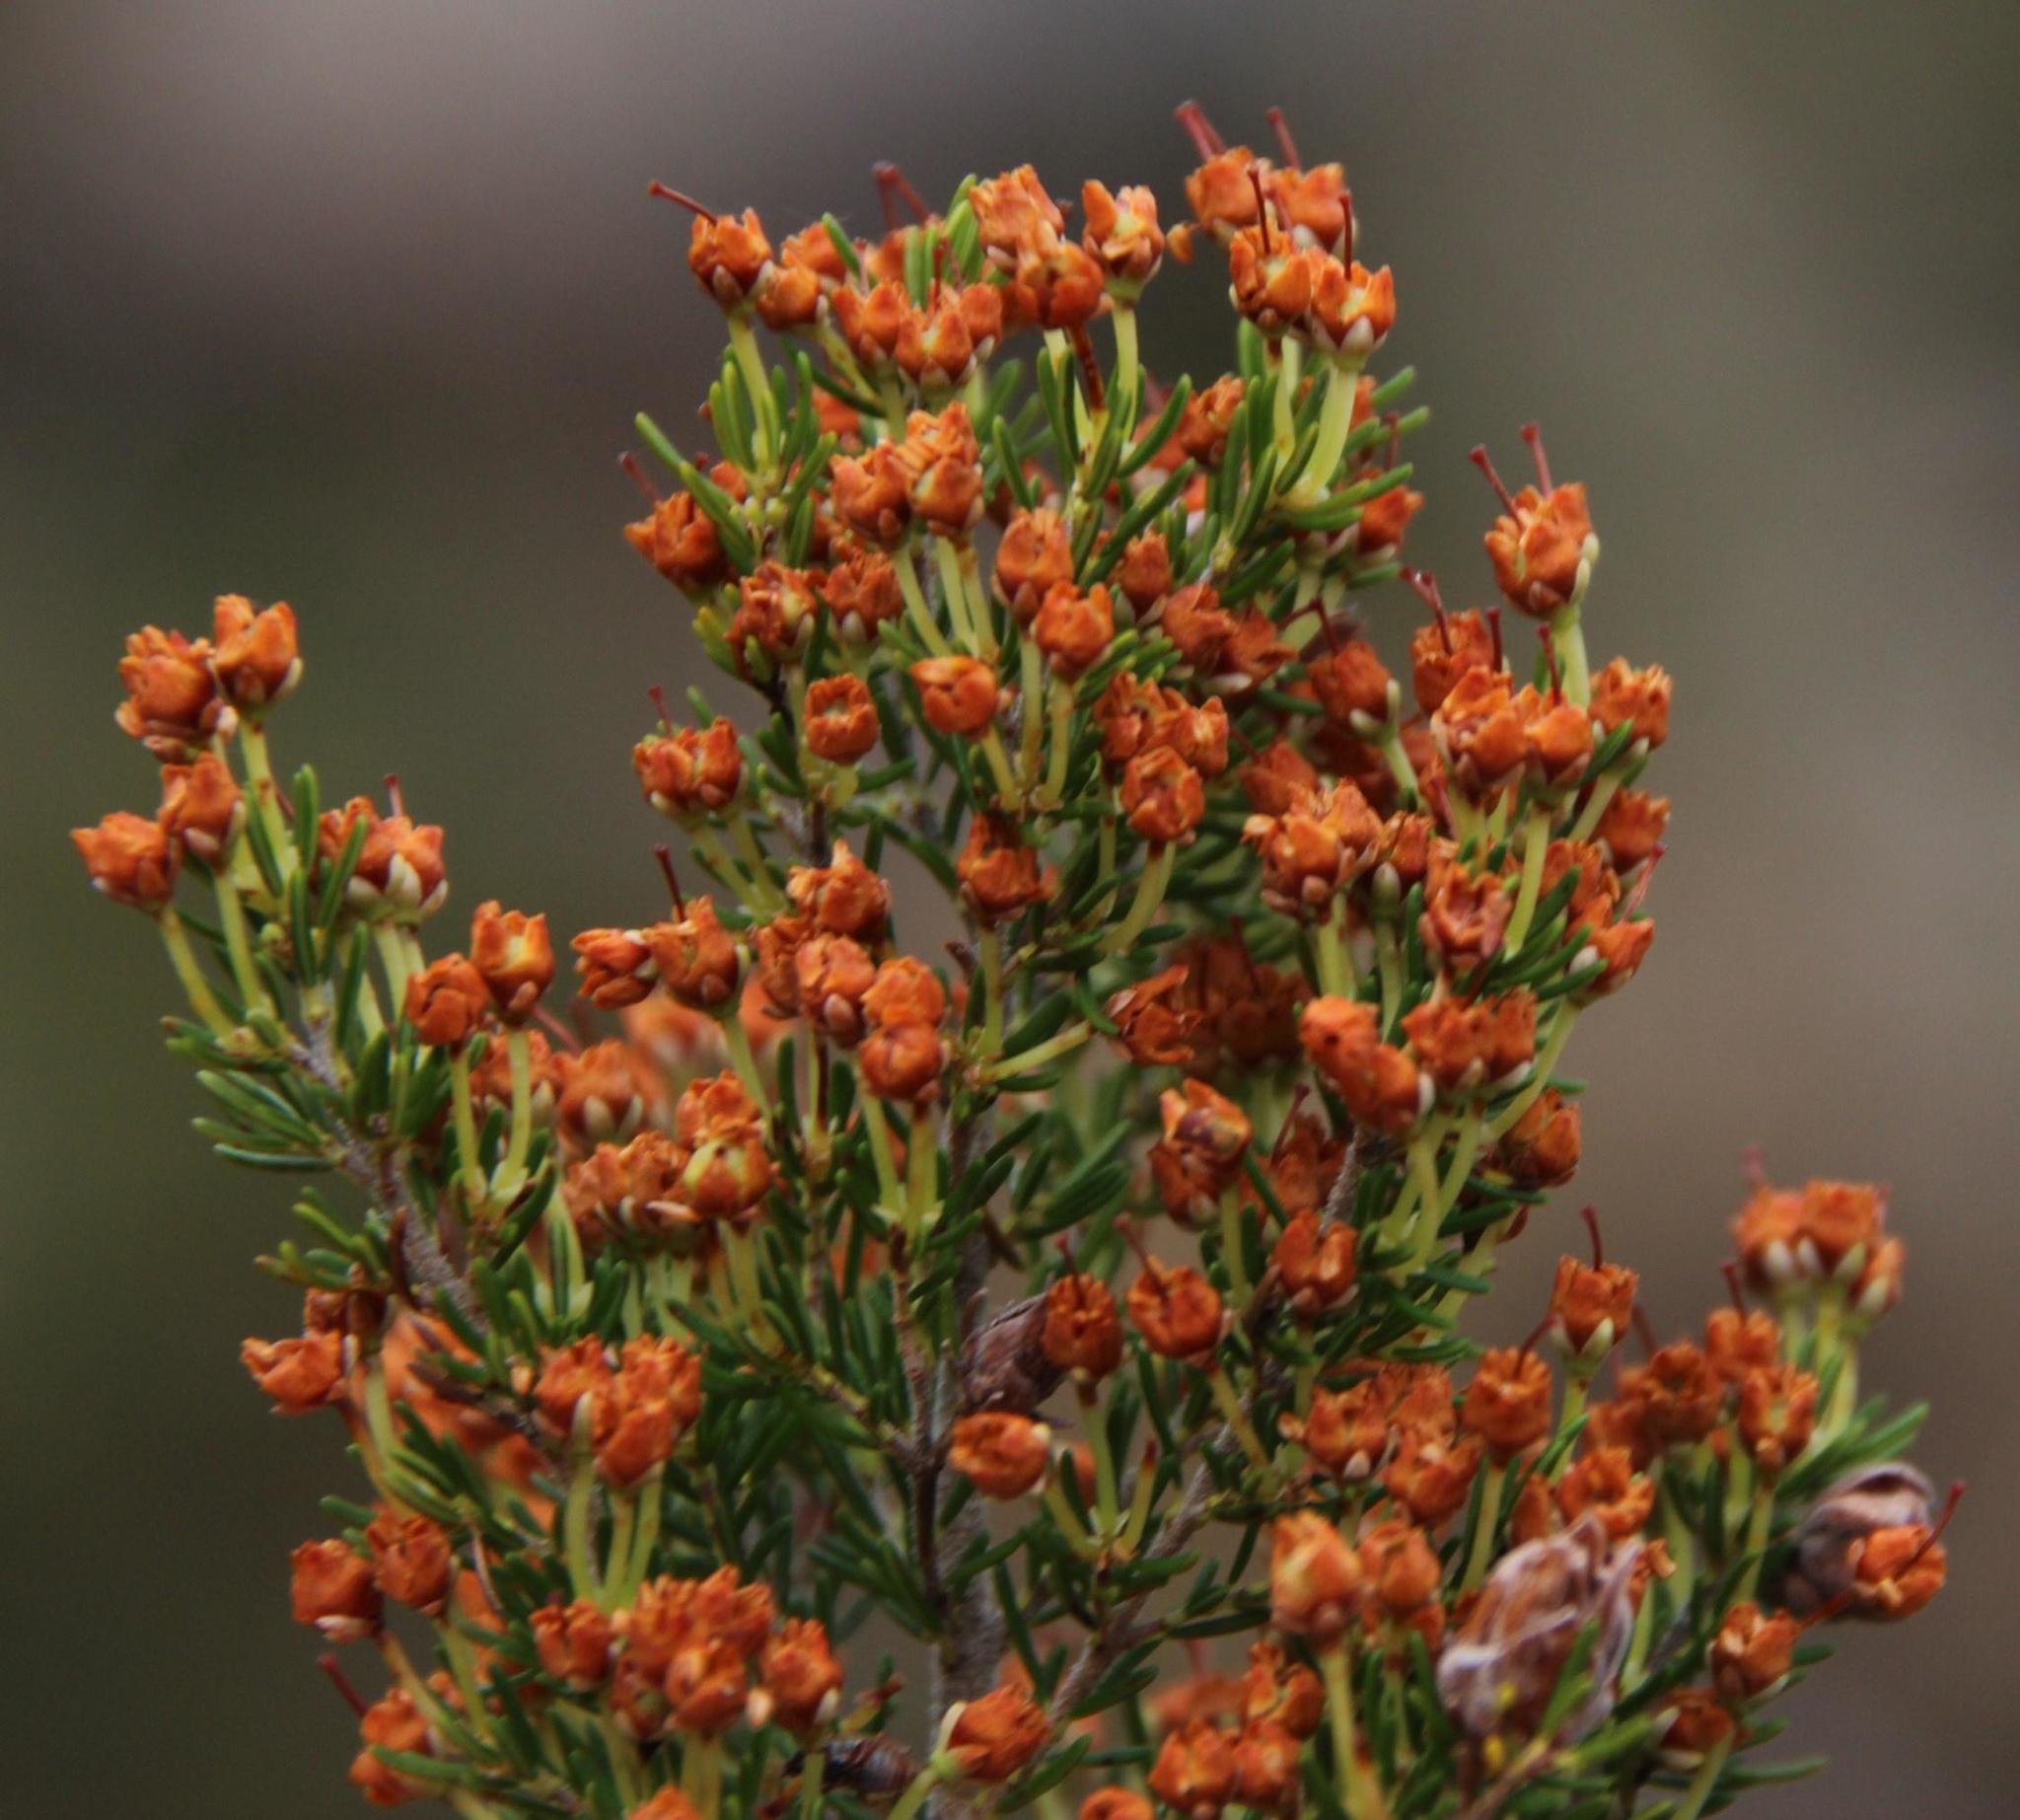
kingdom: Plantae
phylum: Tracheophyta
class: Magnoliopsida
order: Ericales
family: Ericaceae
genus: Erica
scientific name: Erica umbellata
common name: Dwarf spanish heath
